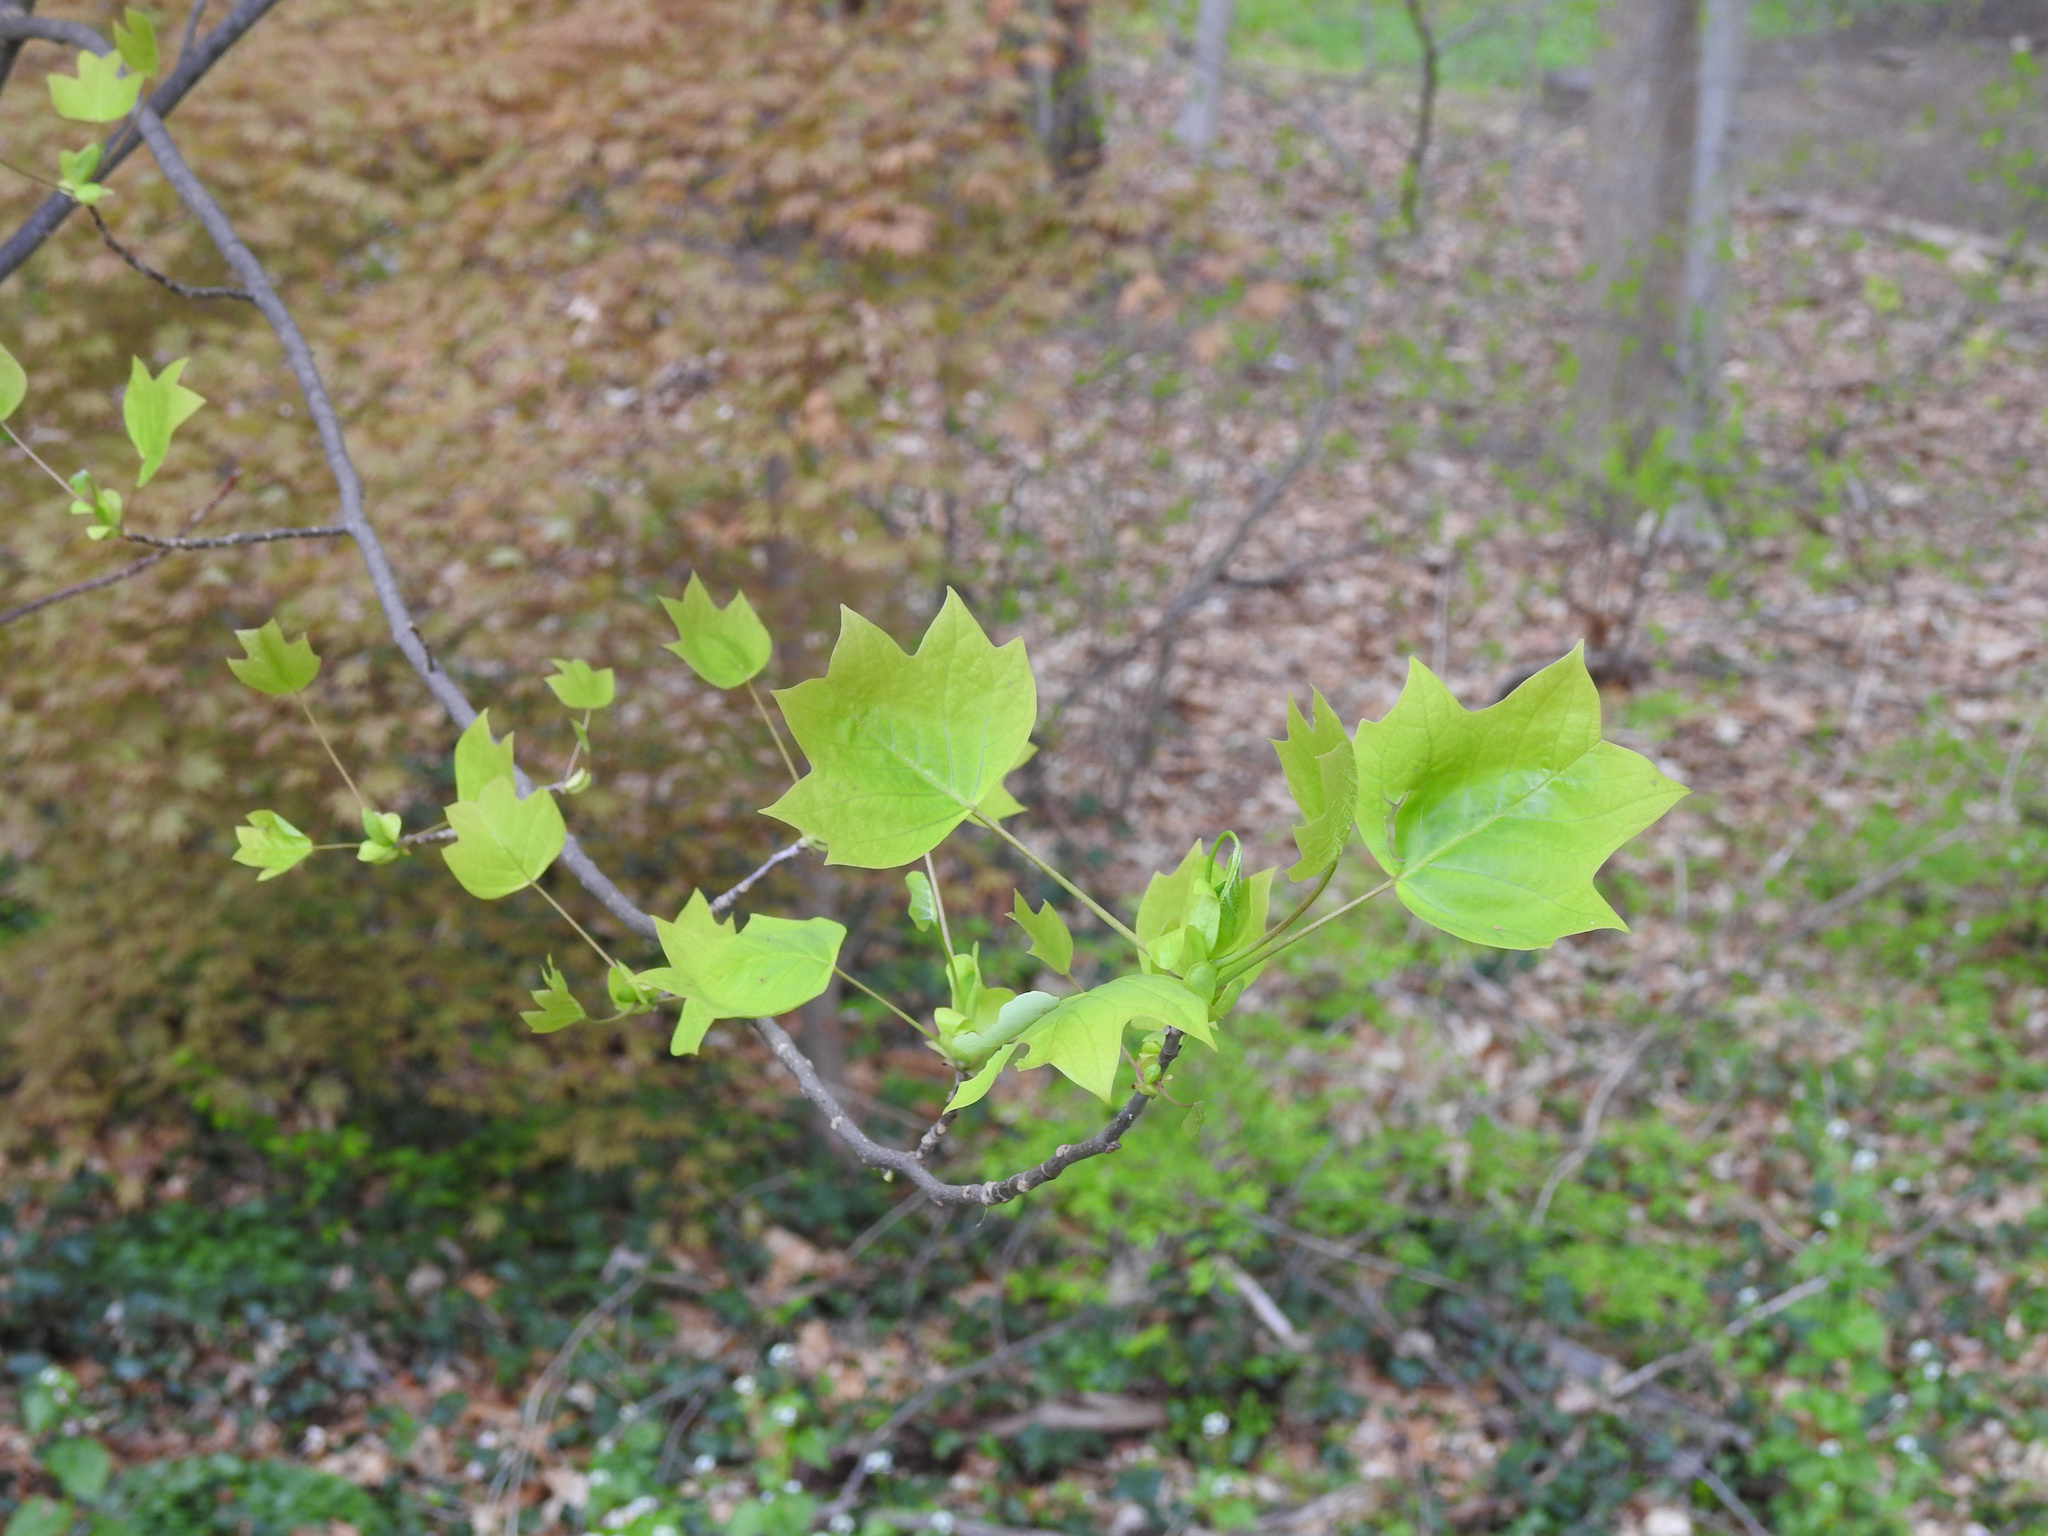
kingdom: Plantae
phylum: Tracheophyta
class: Magnoliopsida
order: Magnoliales
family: Magnoliaceae
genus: Liriodendron
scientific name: Liriodendron tulipifera
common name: Tulip tree
